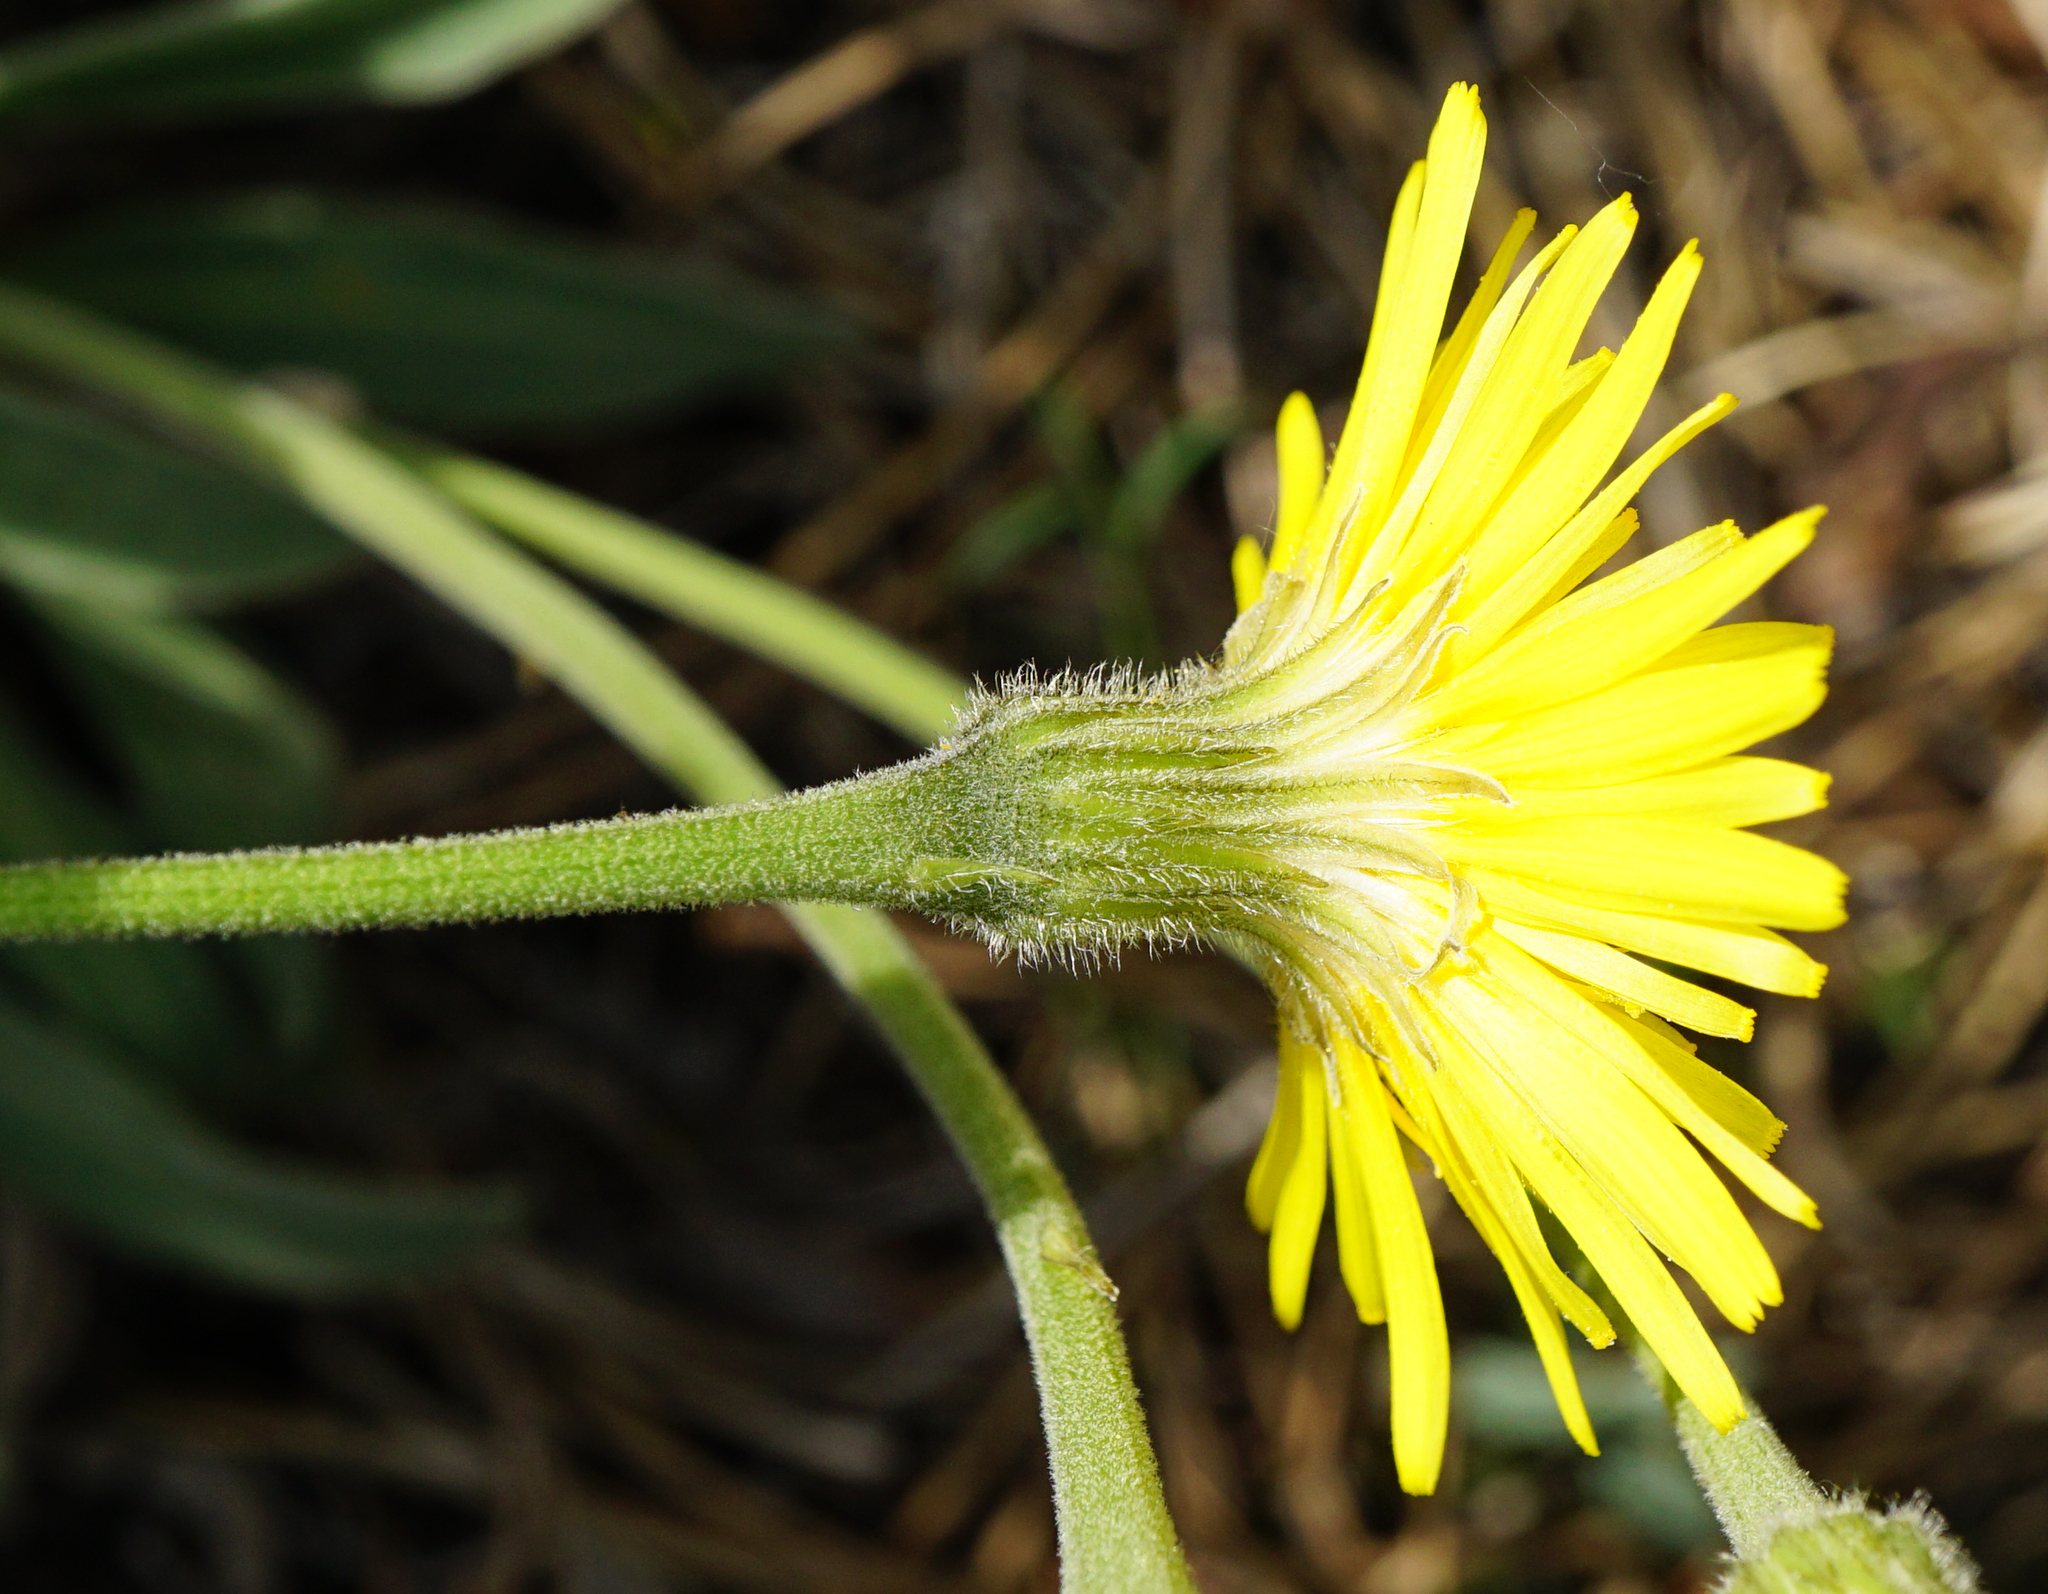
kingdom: Plantae
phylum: Tracheophyta
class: Magnoliopsida
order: Asterales
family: Asteraceae
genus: Leontodon
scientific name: Leontodon incanus
